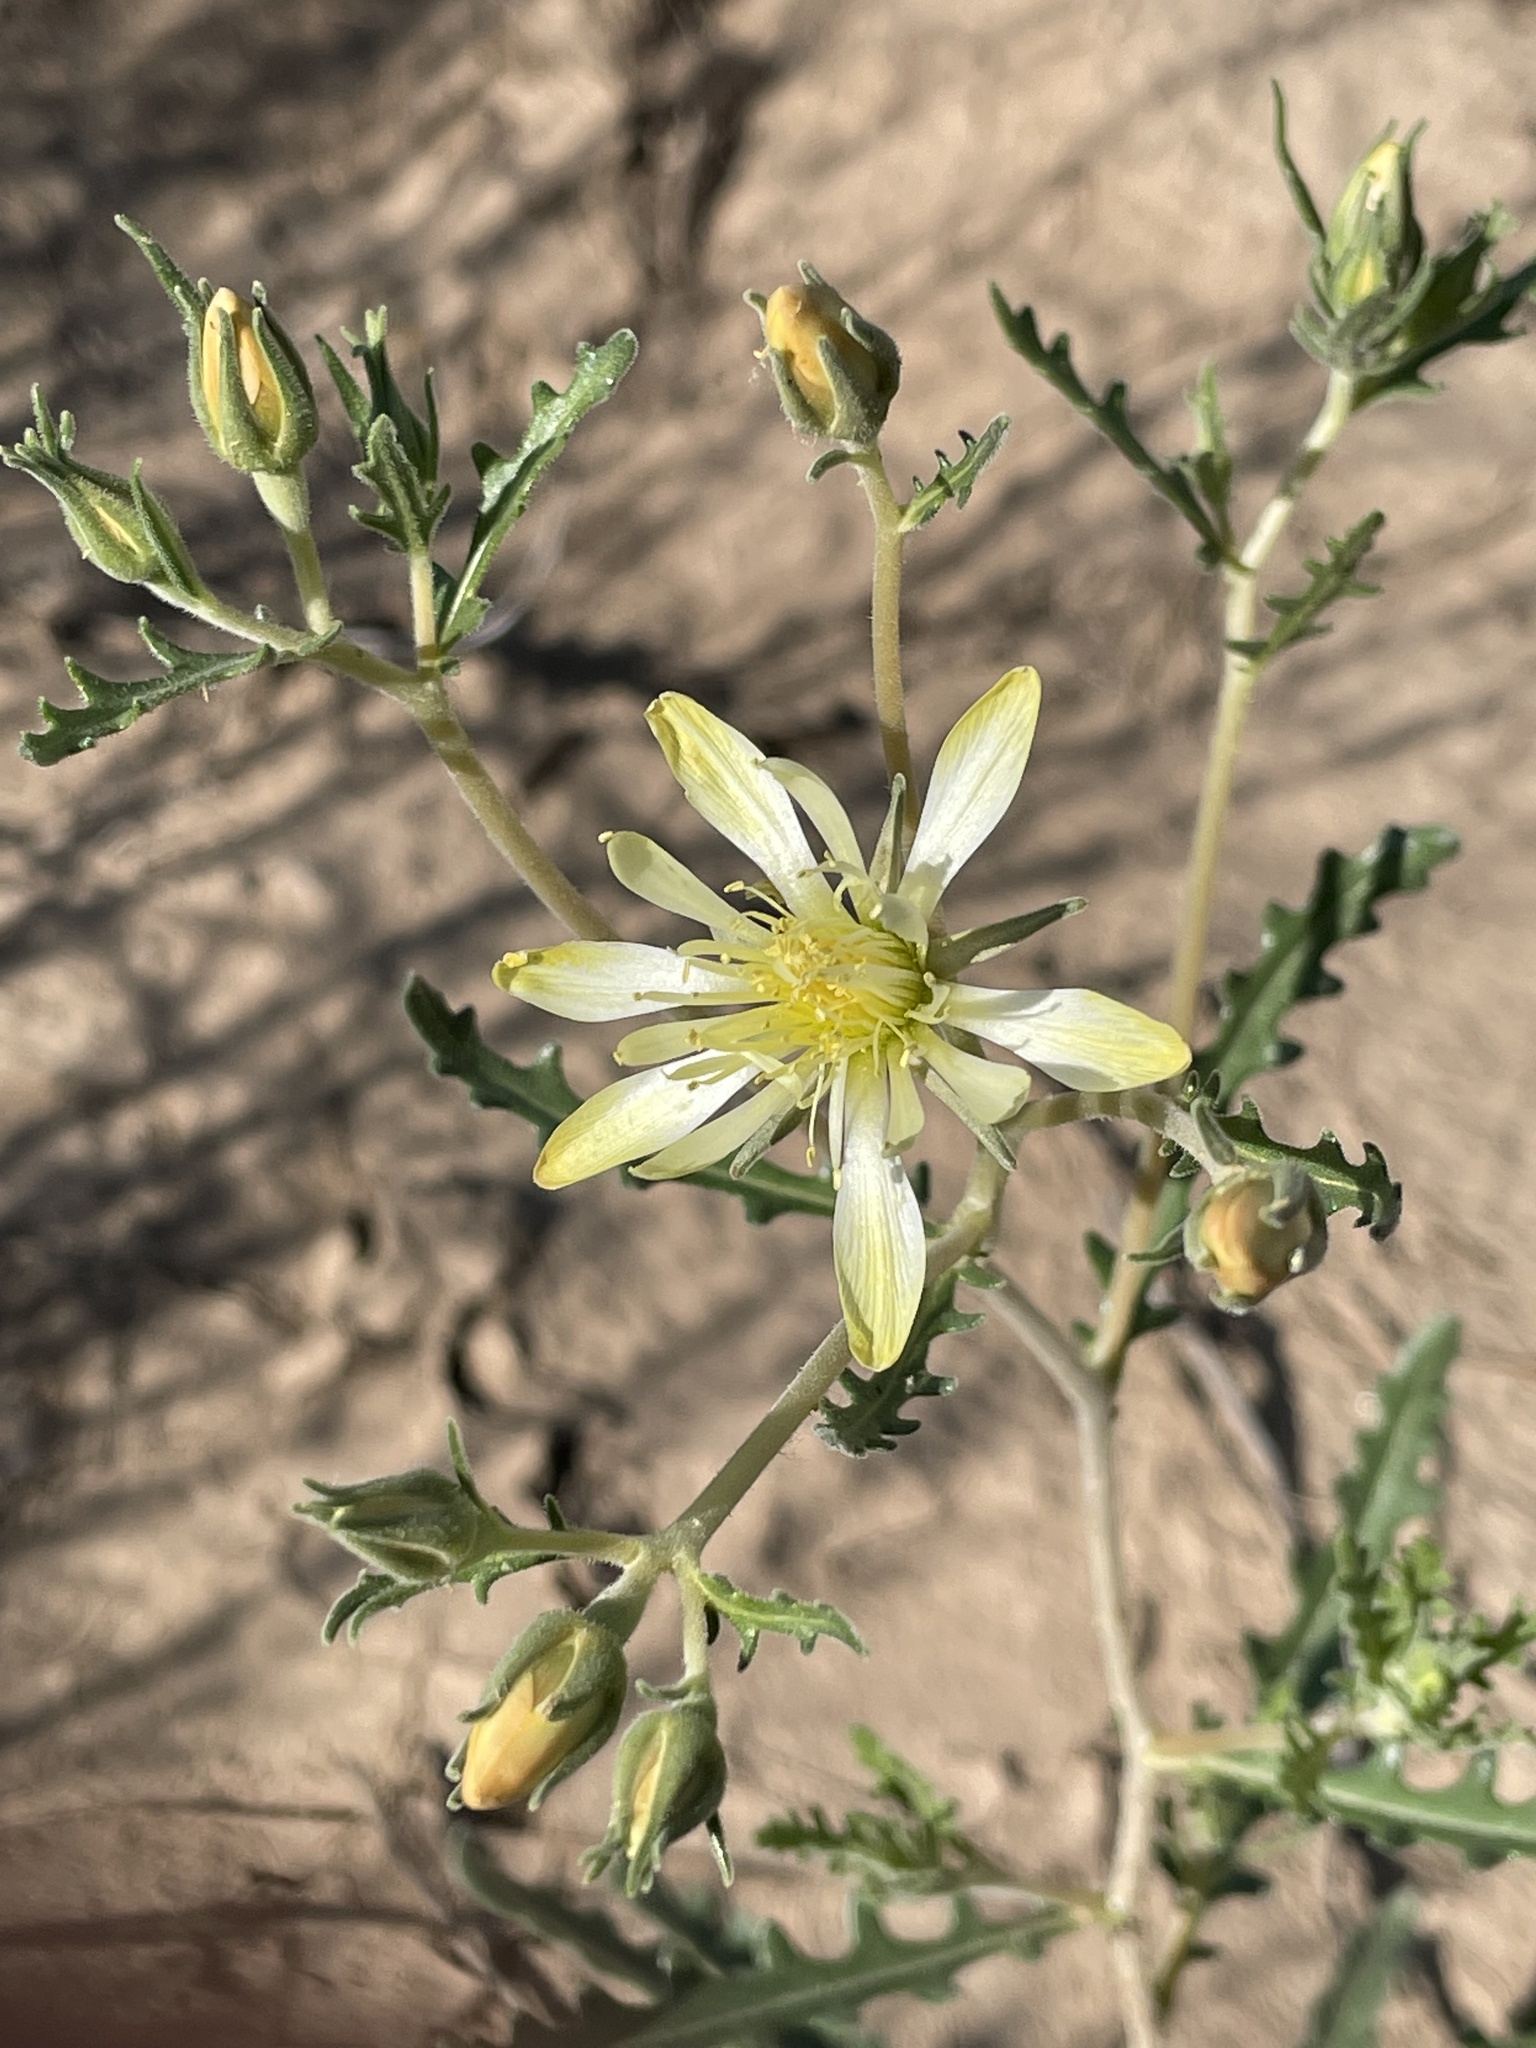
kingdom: Plantae
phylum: Tracheophyta
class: Magnoliopsida
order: Cornales
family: Loasaceae
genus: Mentzelia
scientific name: Mentzelia procera
